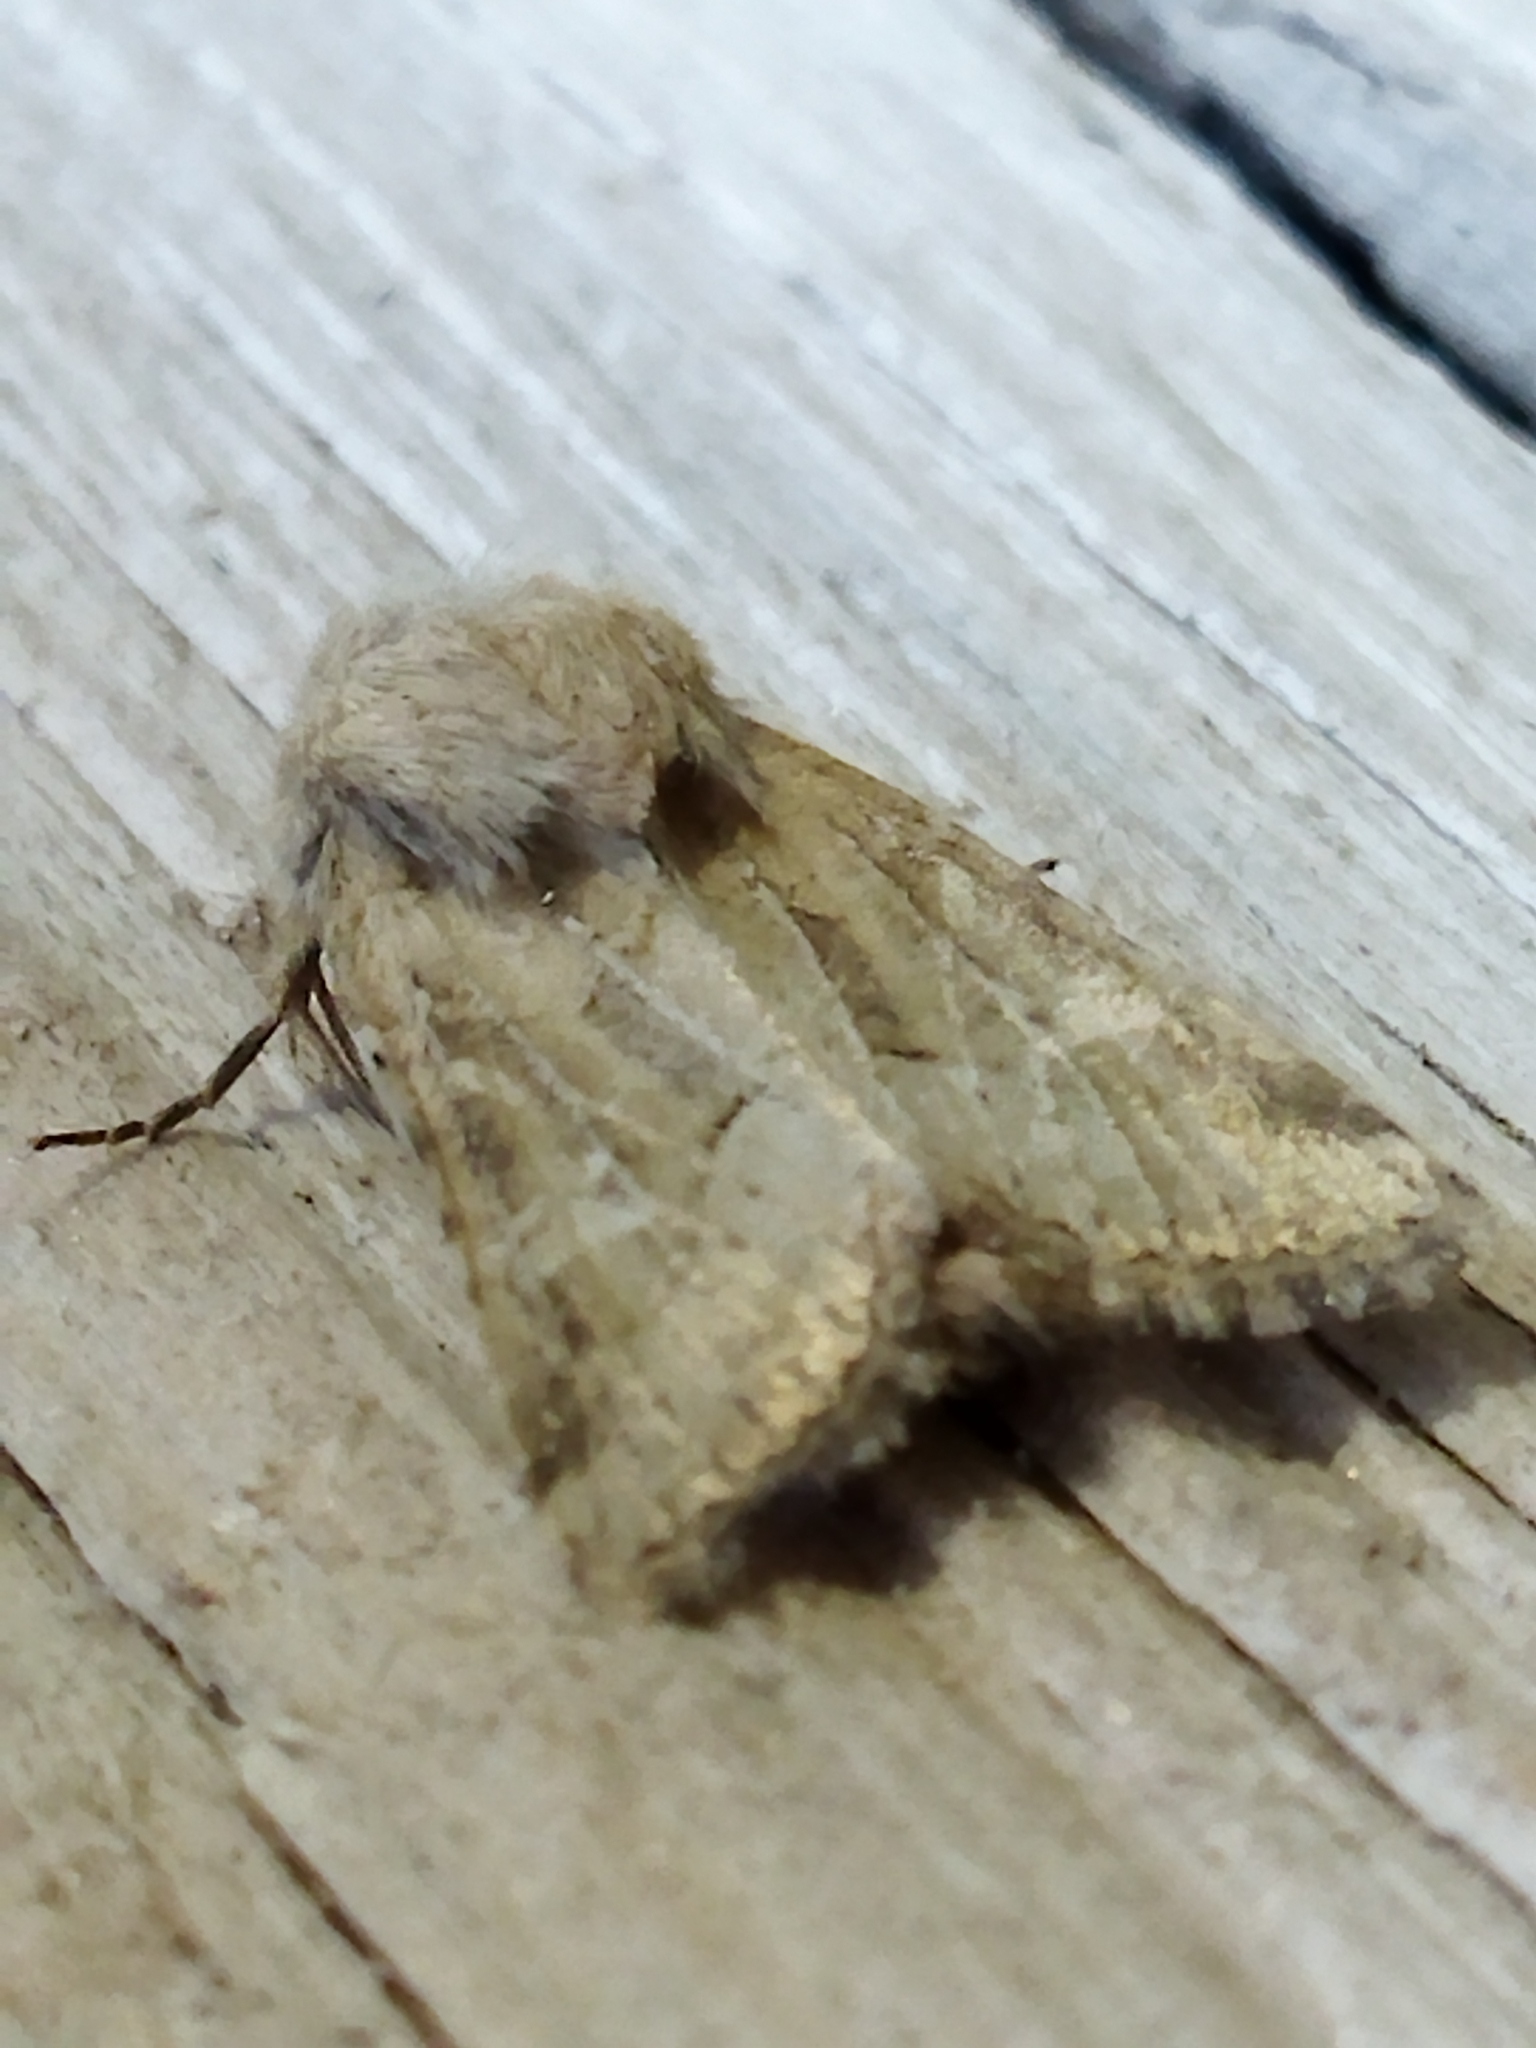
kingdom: Animalia
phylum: Arthropoda
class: Insecta
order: Lepidoptera
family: Noctuidae
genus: Luperina
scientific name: Luperina dumerilii
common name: Dumeril's rustic
